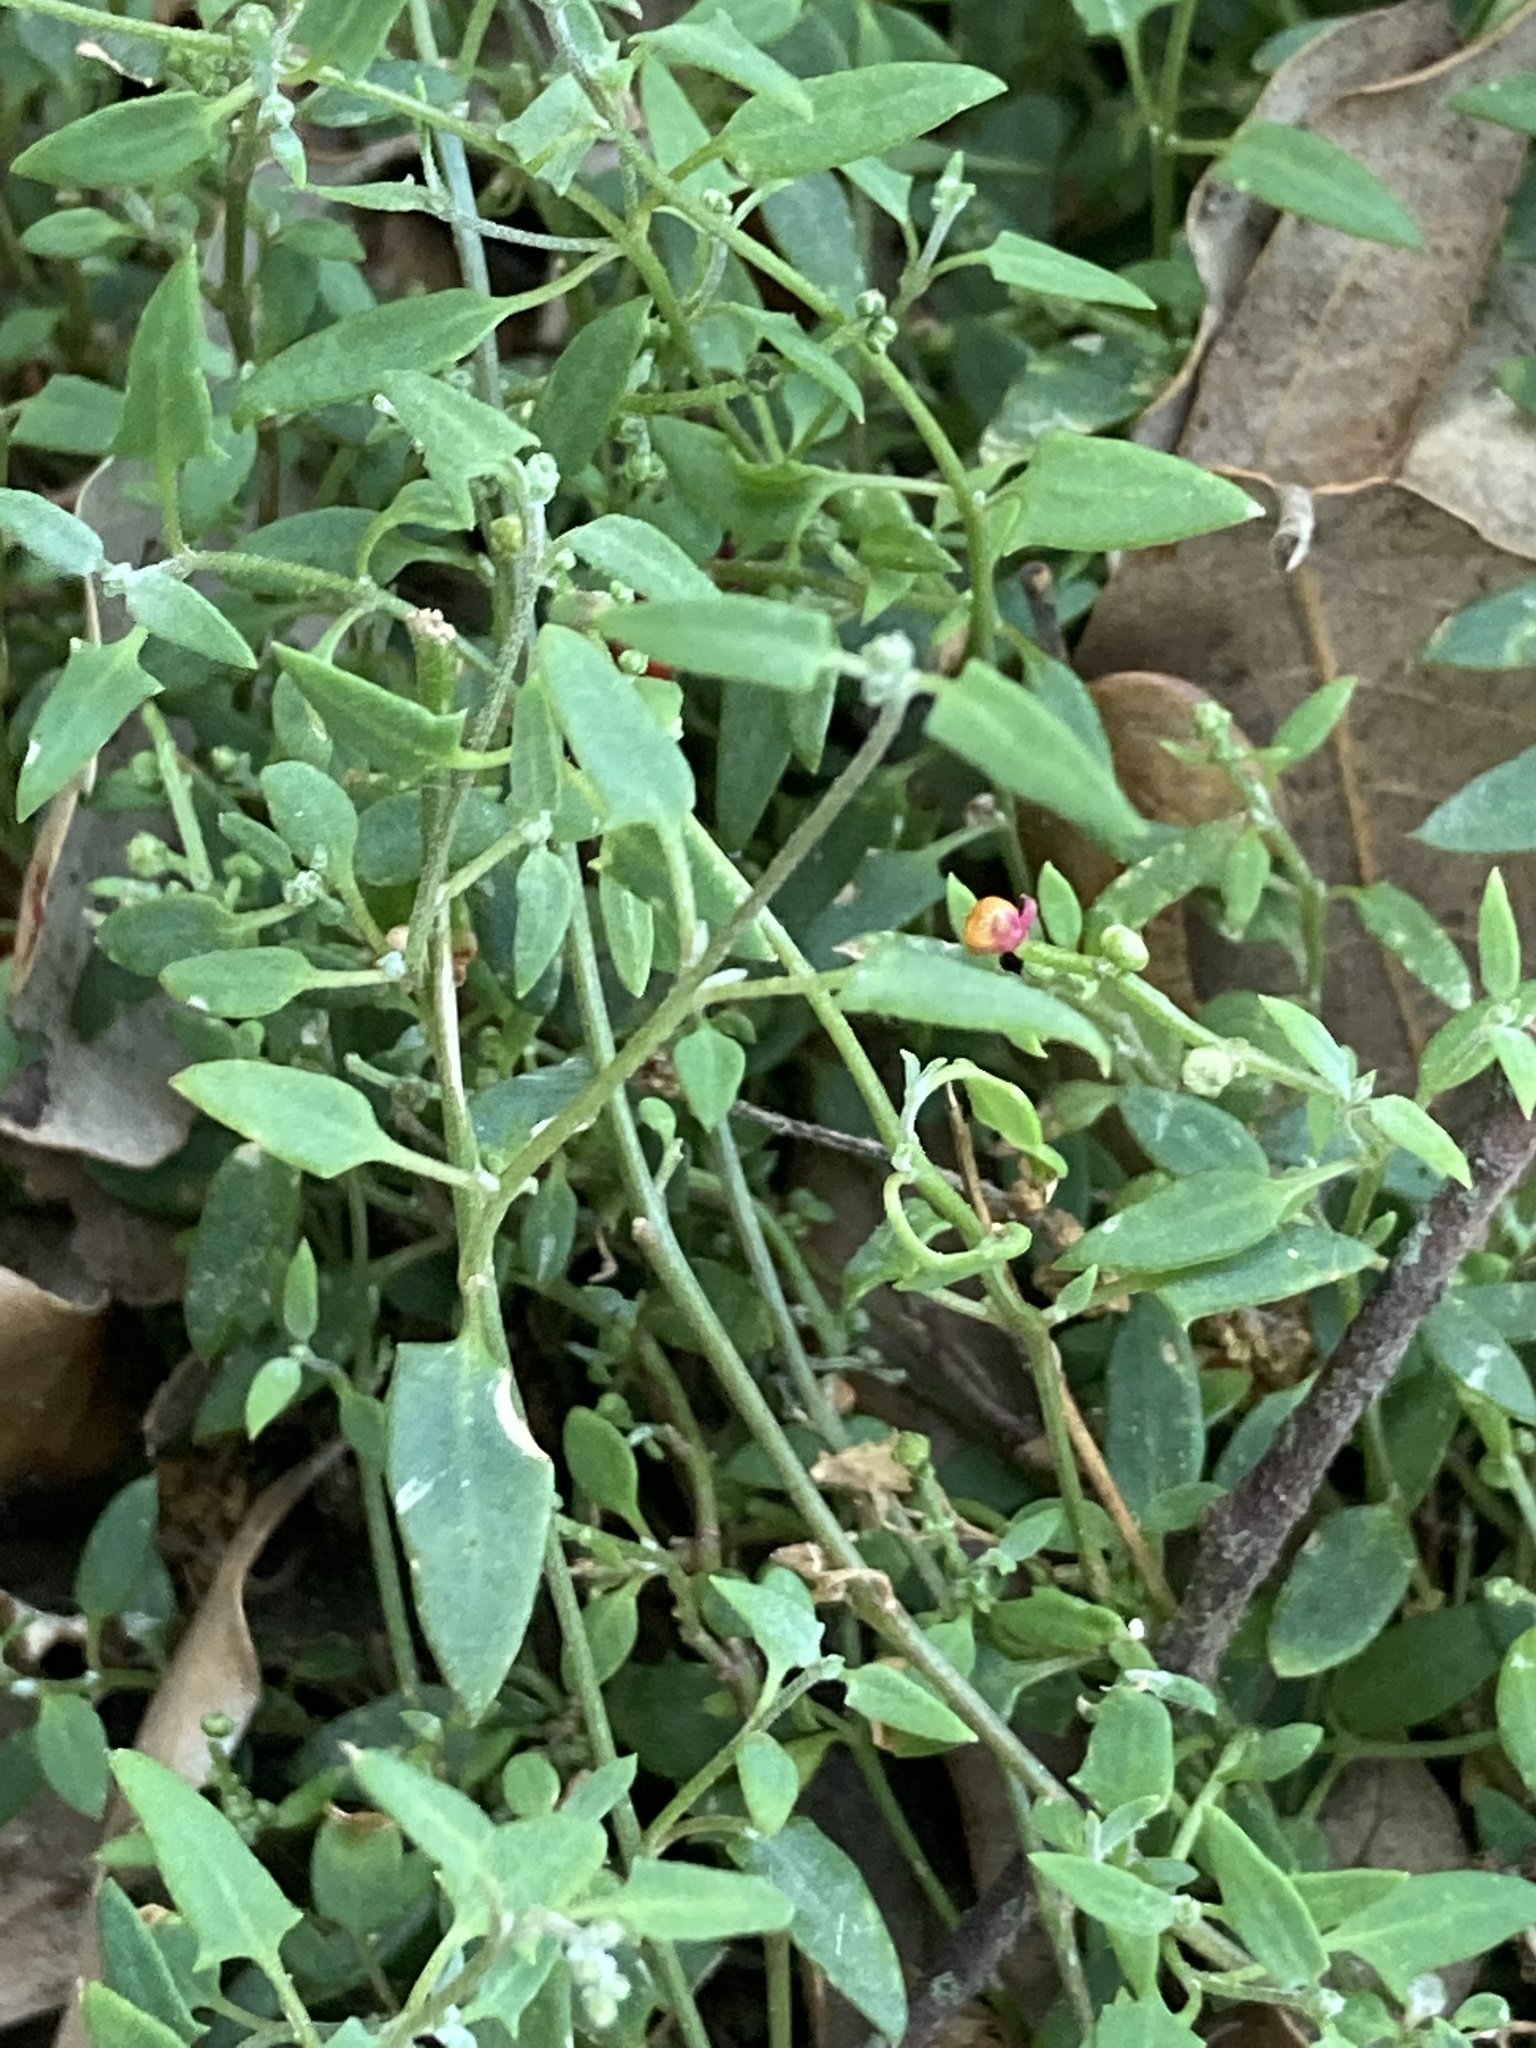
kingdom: Plantae
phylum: Tracheophyta
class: Magnoliopsida
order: Caryophyllales
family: Amaranthaceae
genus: Chenopodium
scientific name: Chenopodium nutans
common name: Climbing-saltbush
